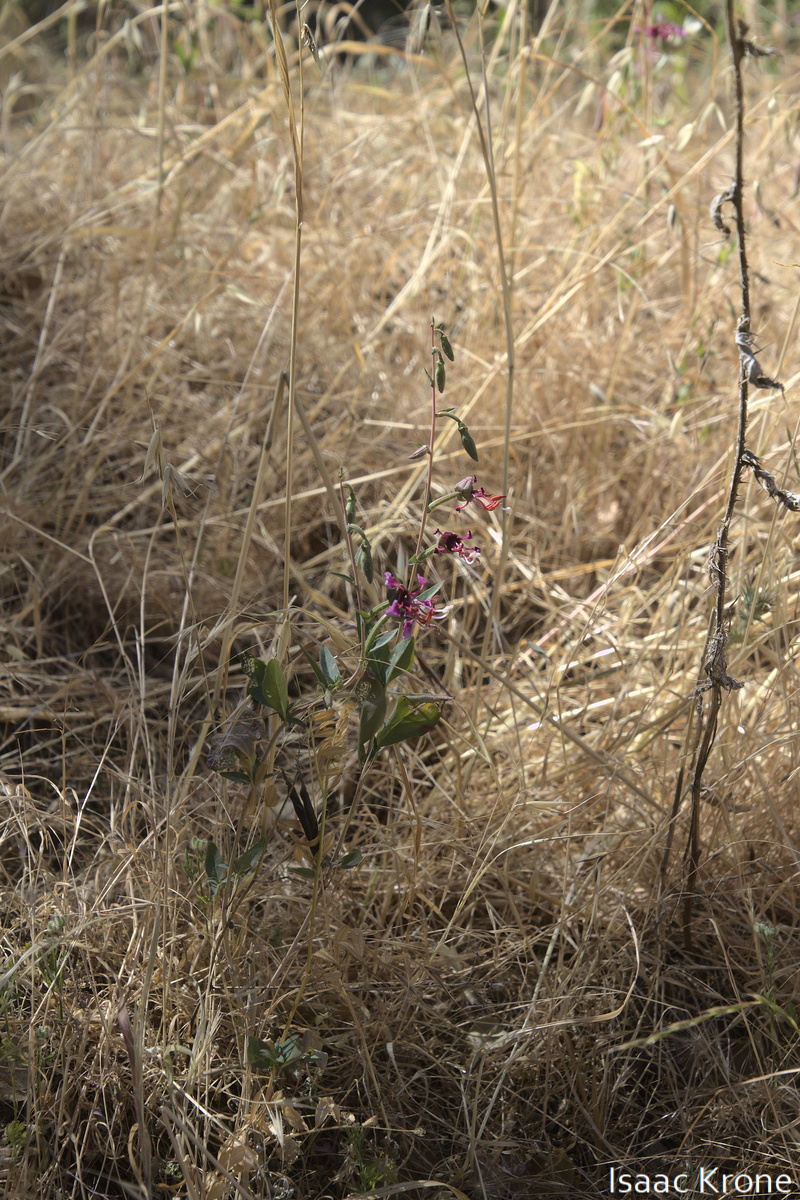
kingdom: Plantae
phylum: Tracheophyta
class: Magnoliopsida
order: Myrtales
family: Onagraceae
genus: Clarkia
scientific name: Clarkia unguiculata
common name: Clarkia
